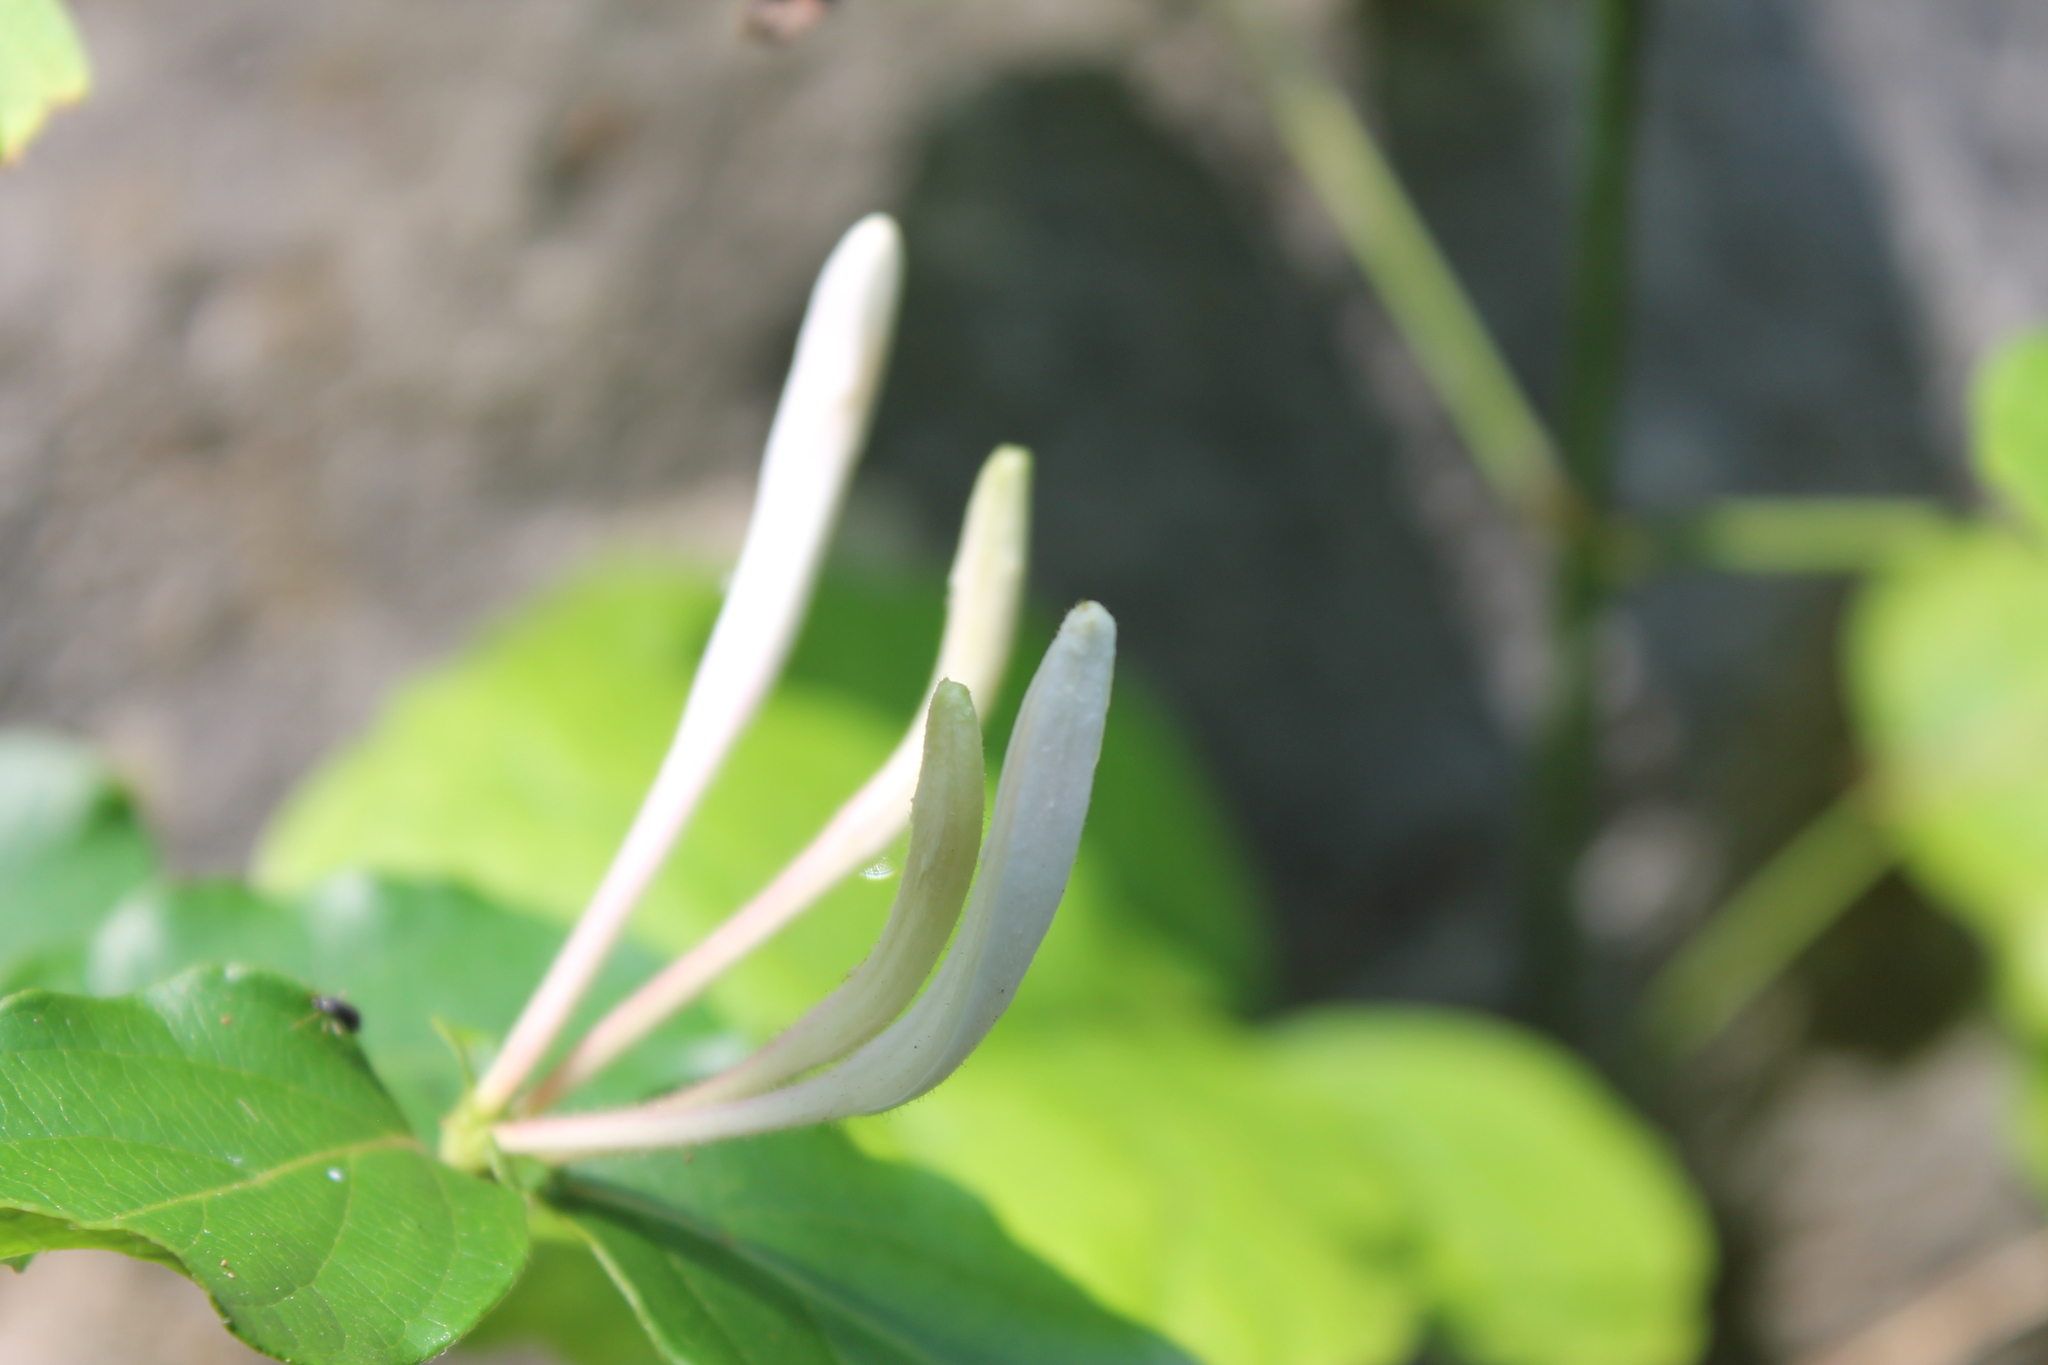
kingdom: Plantae
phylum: Tracheophyta
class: Magnoliopsida
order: Dipsacales
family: Caprifoliaceae
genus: Lonicera
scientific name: Lonicera japonica
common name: Japanese honeysuckle
